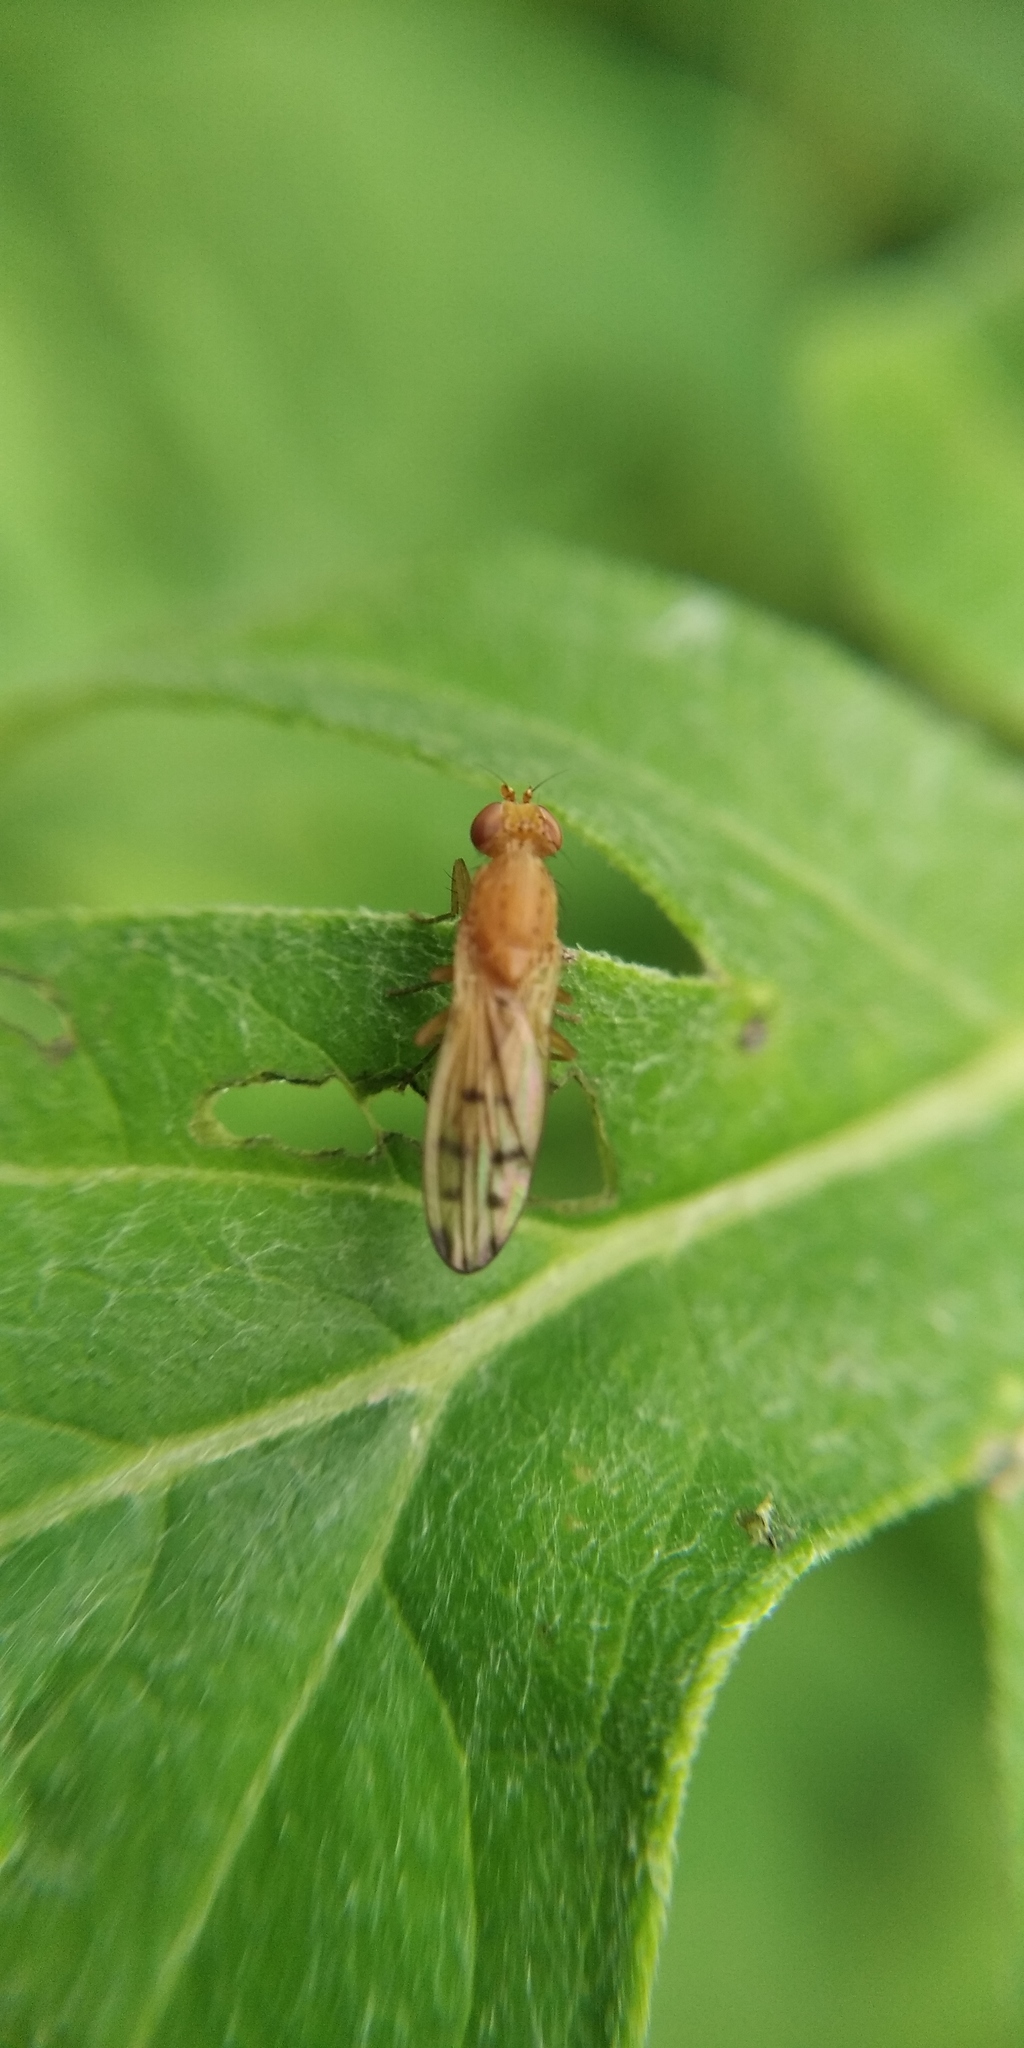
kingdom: Animalia
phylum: Arthropoda
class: Insecta
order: Diptera
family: Opomyzidae
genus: Opomyza
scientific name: Opomyza florum
